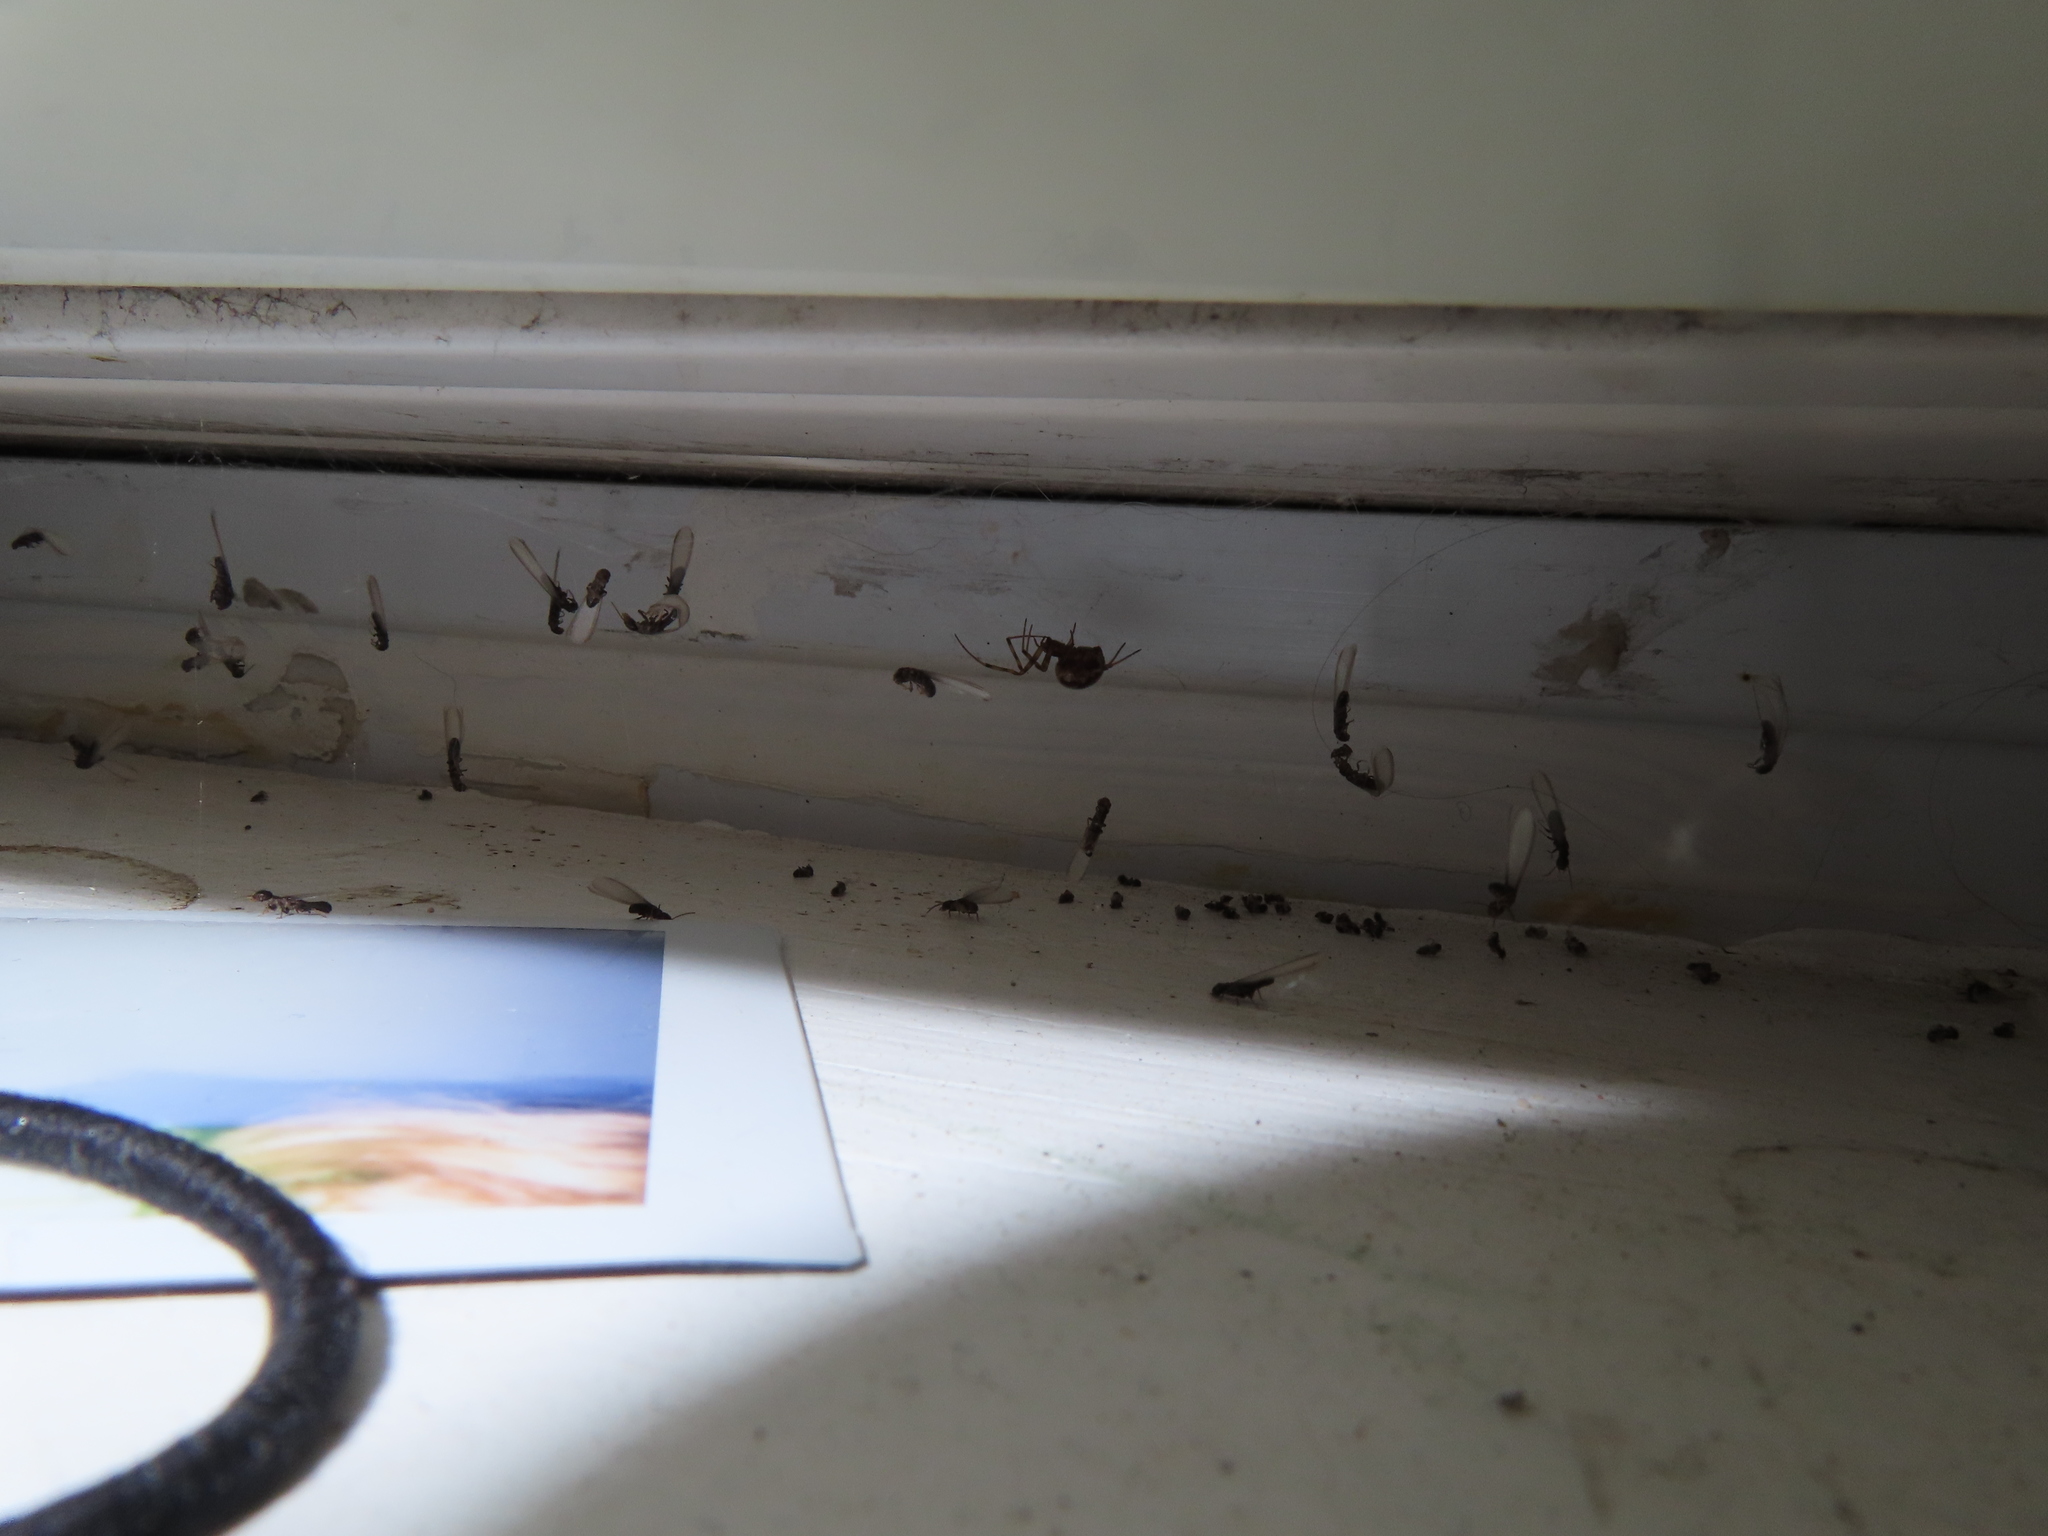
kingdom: Animalia
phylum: Arthropoda
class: Insecta
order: Blattodea
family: Rhinotermitidae
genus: Reticulitermes
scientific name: Reticulitermes flavipes
